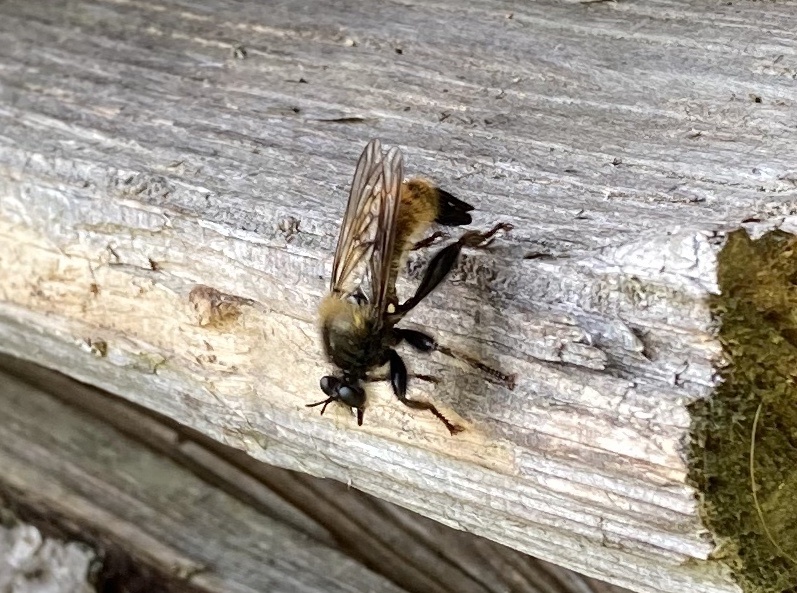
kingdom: Animalia
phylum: Arthropoda
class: Insecta
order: Diptera
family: Asilidae
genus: Laphria
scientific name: Laphria flava
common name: Bumblebee robberfly
